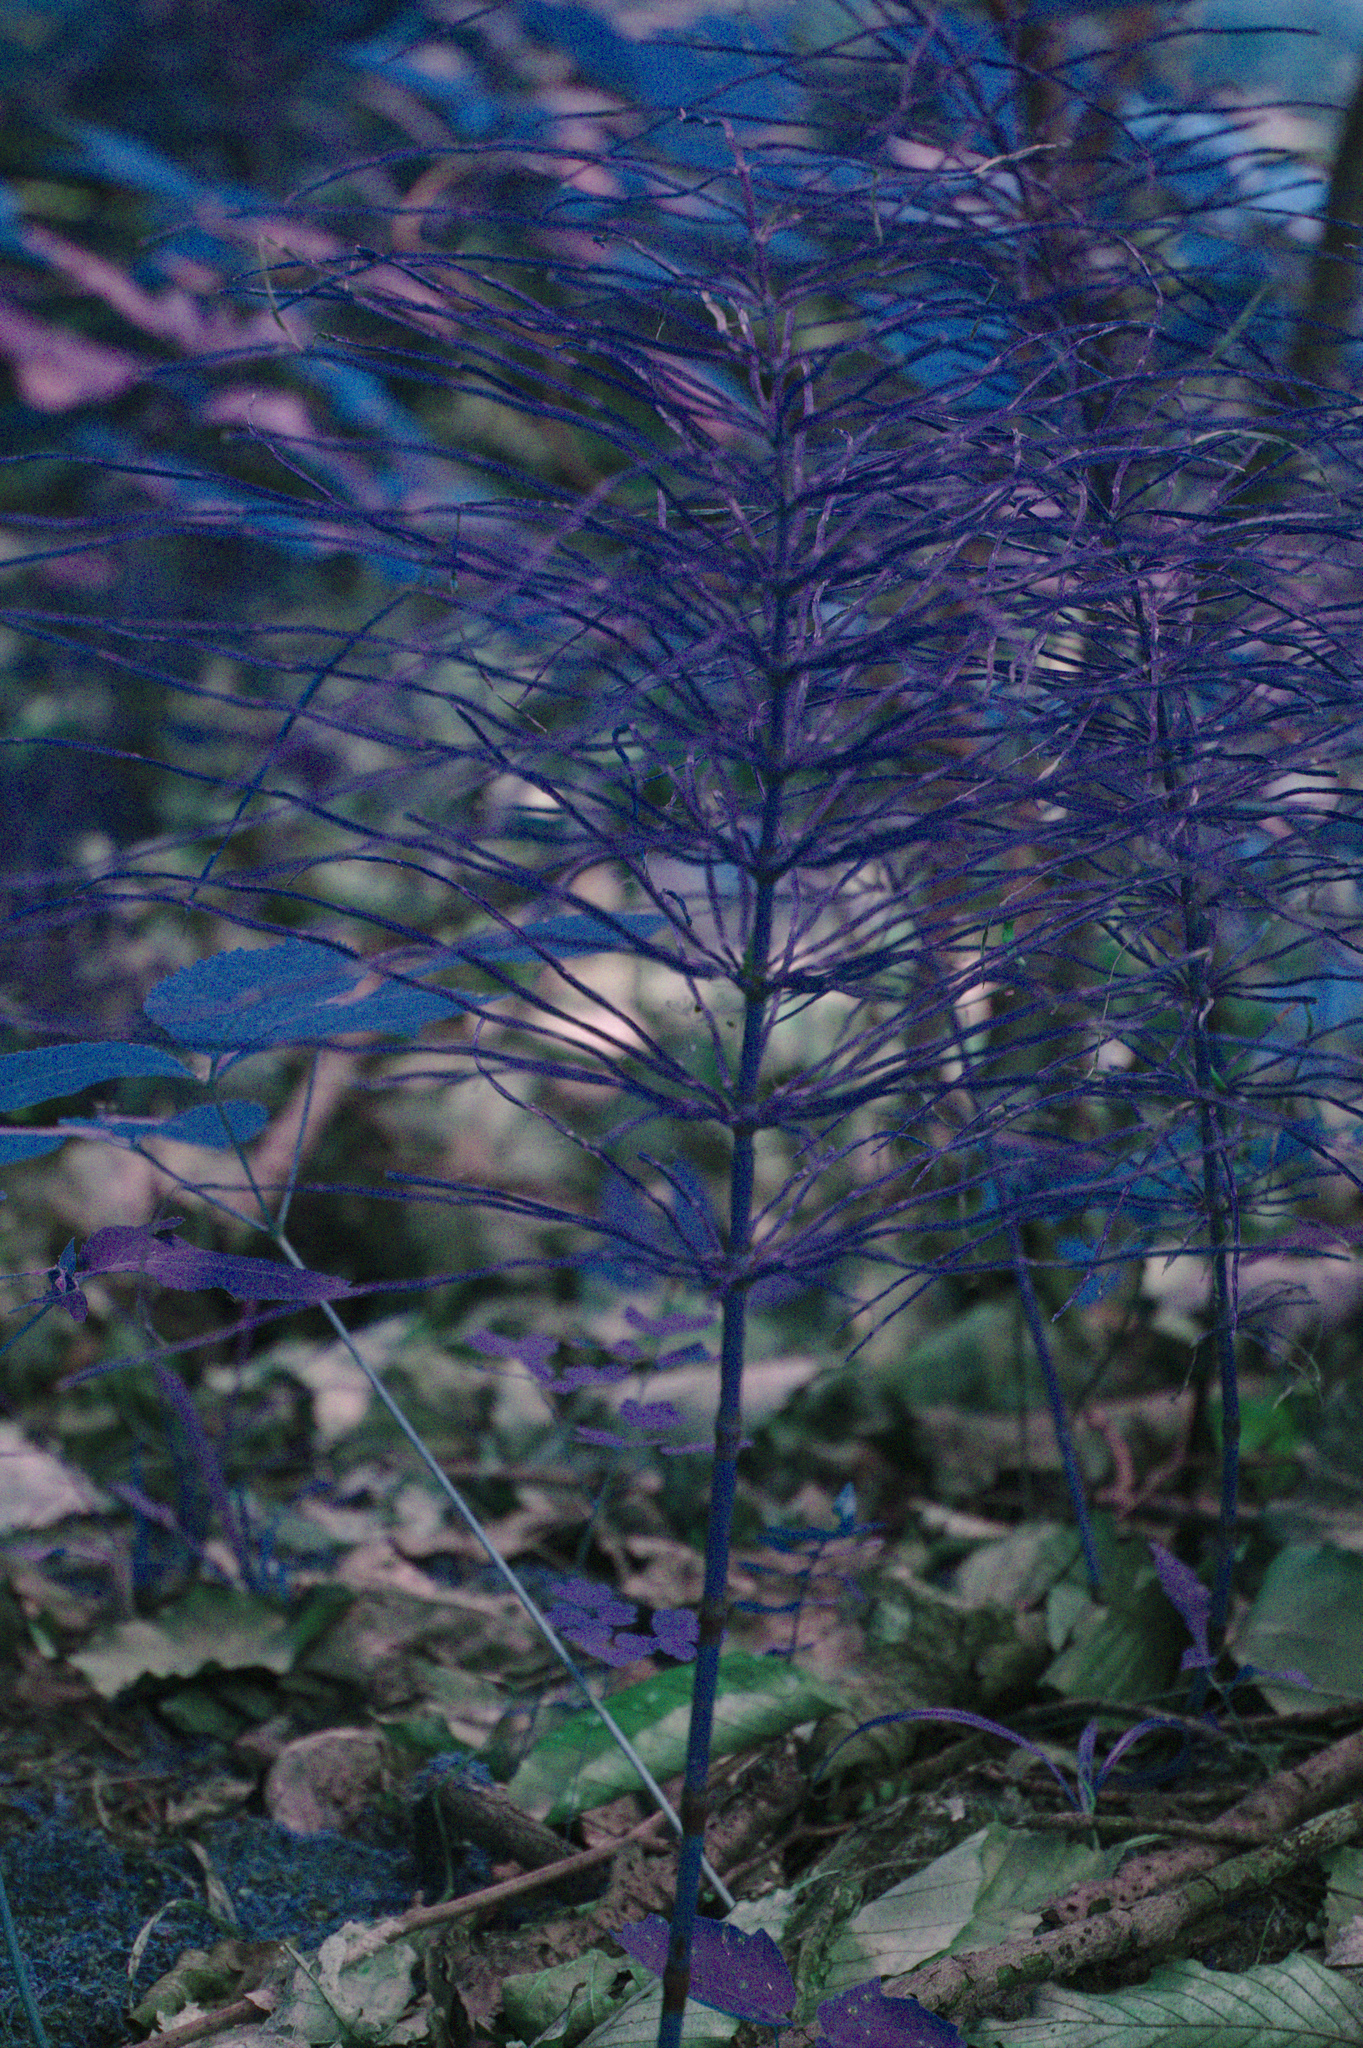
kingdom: Plantae
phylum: Tracheophyta
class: Polypodiopsida
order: Equisetales
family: Equisetaceae
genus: Equisetum
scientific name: Equisetum arvense
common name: Field horsetail
